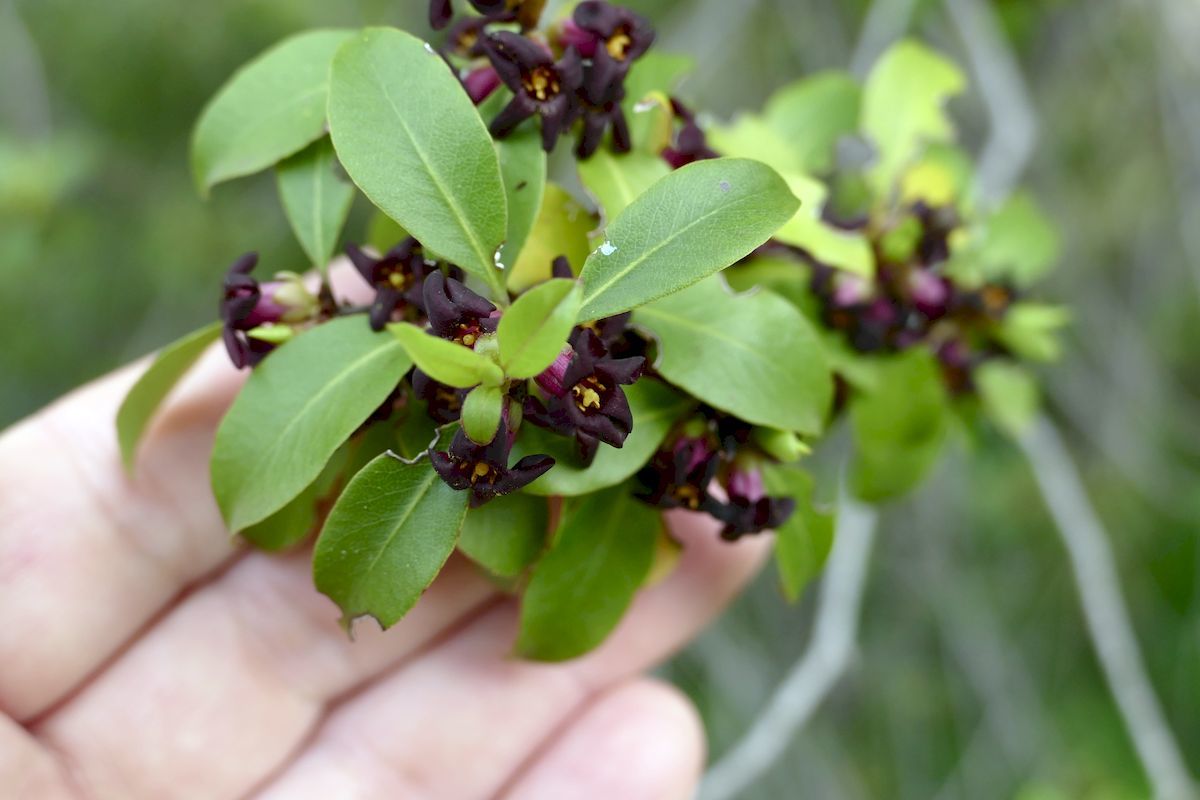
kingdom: Plantae
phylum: Tracheophyta
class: Magnoliopsida
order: Apiales
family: Pittosporaceae
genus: Pittosporum
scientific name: Pittosporum tenuifolium
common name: Kohuhu
